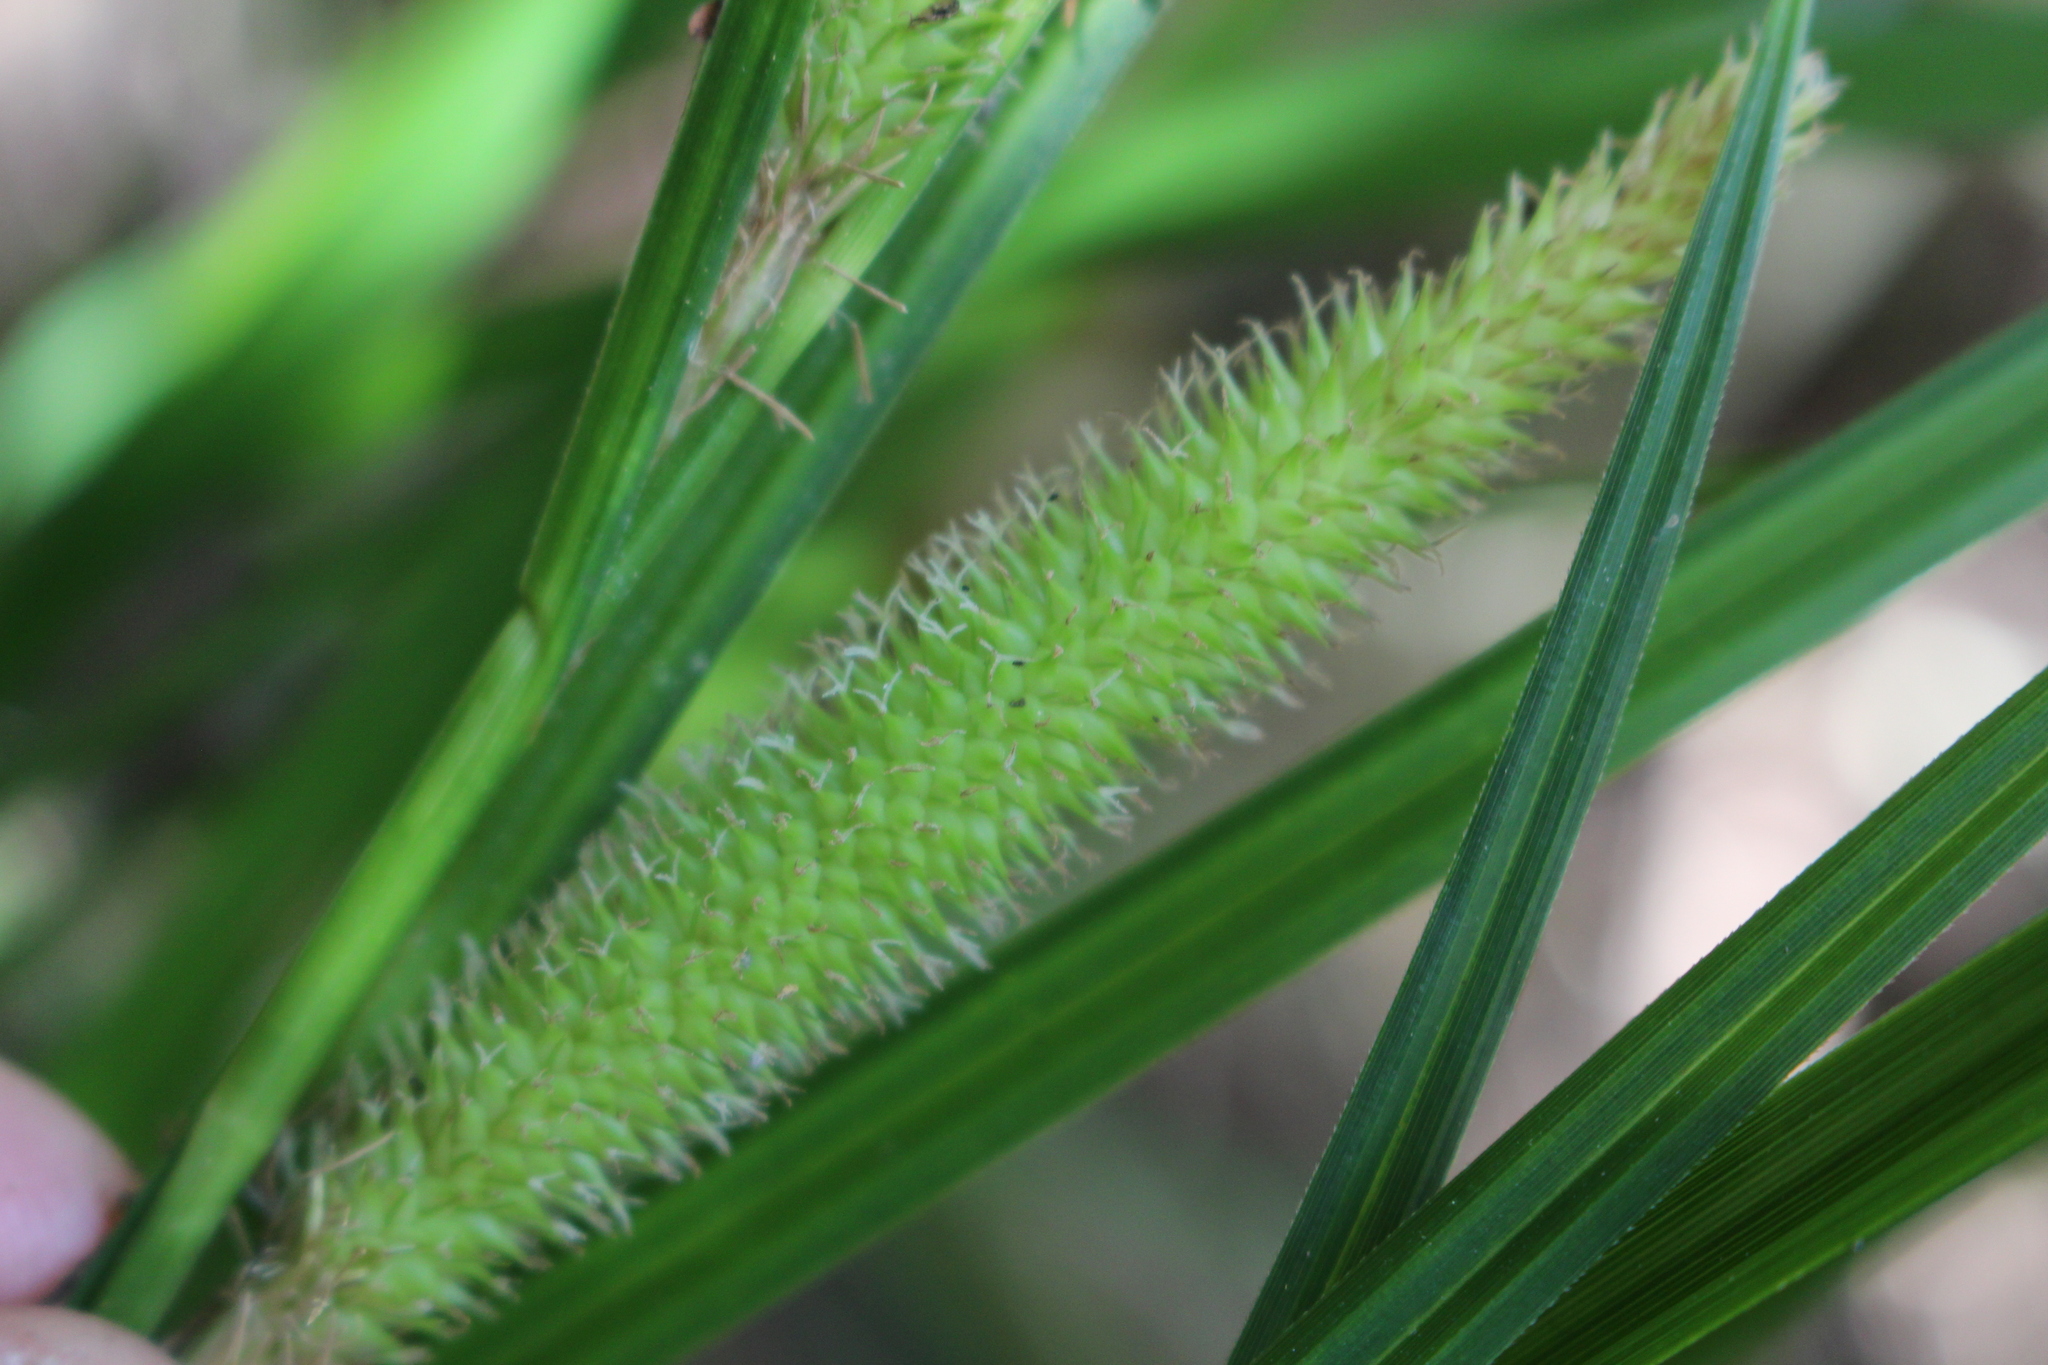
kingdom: Plantae
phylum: Tracheophyta
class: Liliopsida
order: Poales
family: Cyperaceae
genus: Carex
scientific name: Carex forsteri
